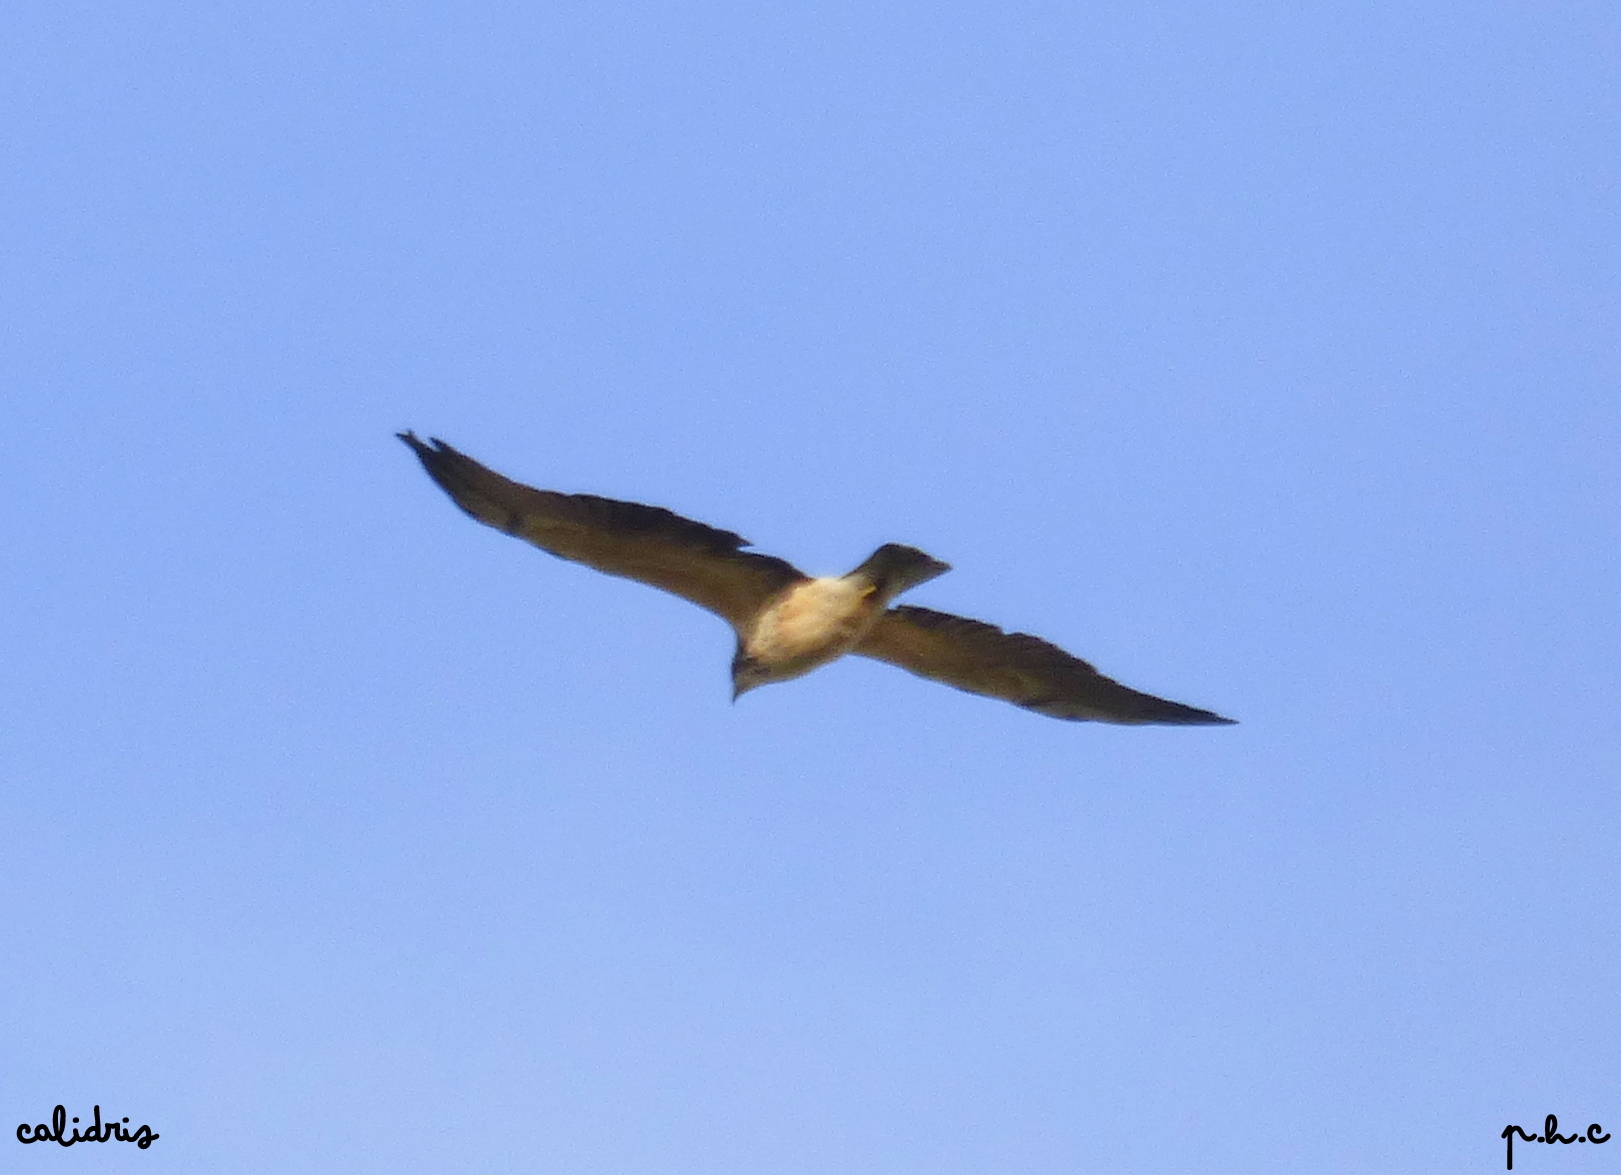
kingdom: Animalia
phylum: Chordata
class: Aves
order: Accipitriformes
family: Accipitridae
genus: Buteo
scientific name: Buteo swainsoni
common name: Swainson's hawk
